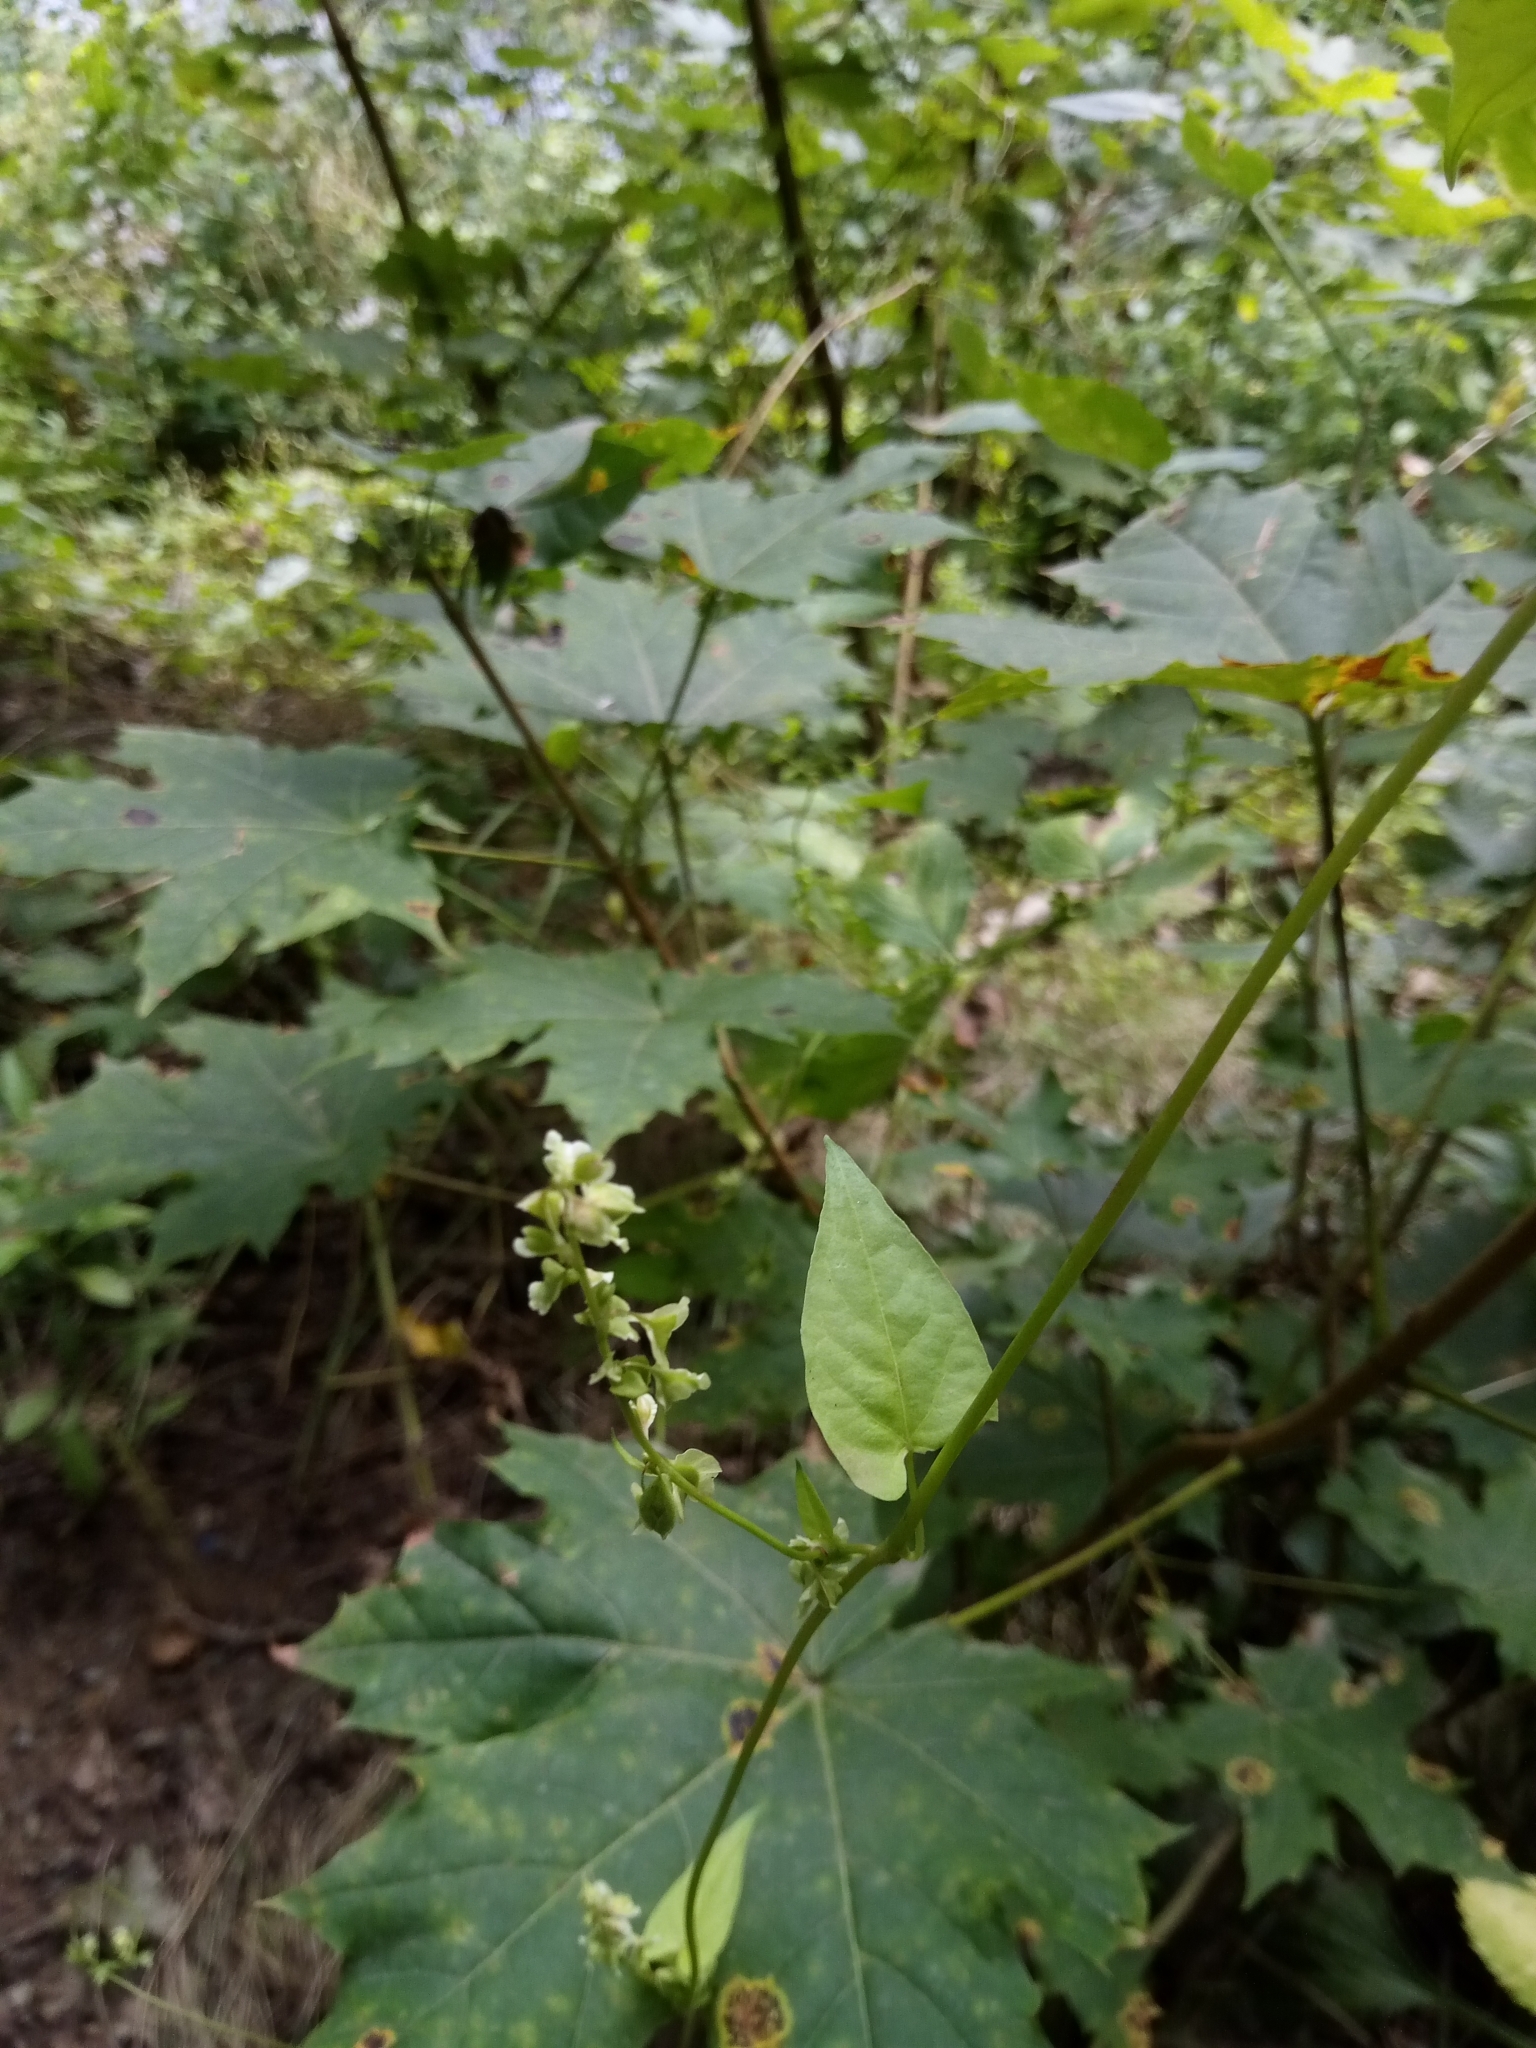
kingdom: Plantae
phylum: Tracheophyta
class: Magnoliopsida
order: Caryophyllales
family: Polygonaceae
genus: Fallopia
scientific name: Fallopia dumetorum
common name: Copse-bindweed
